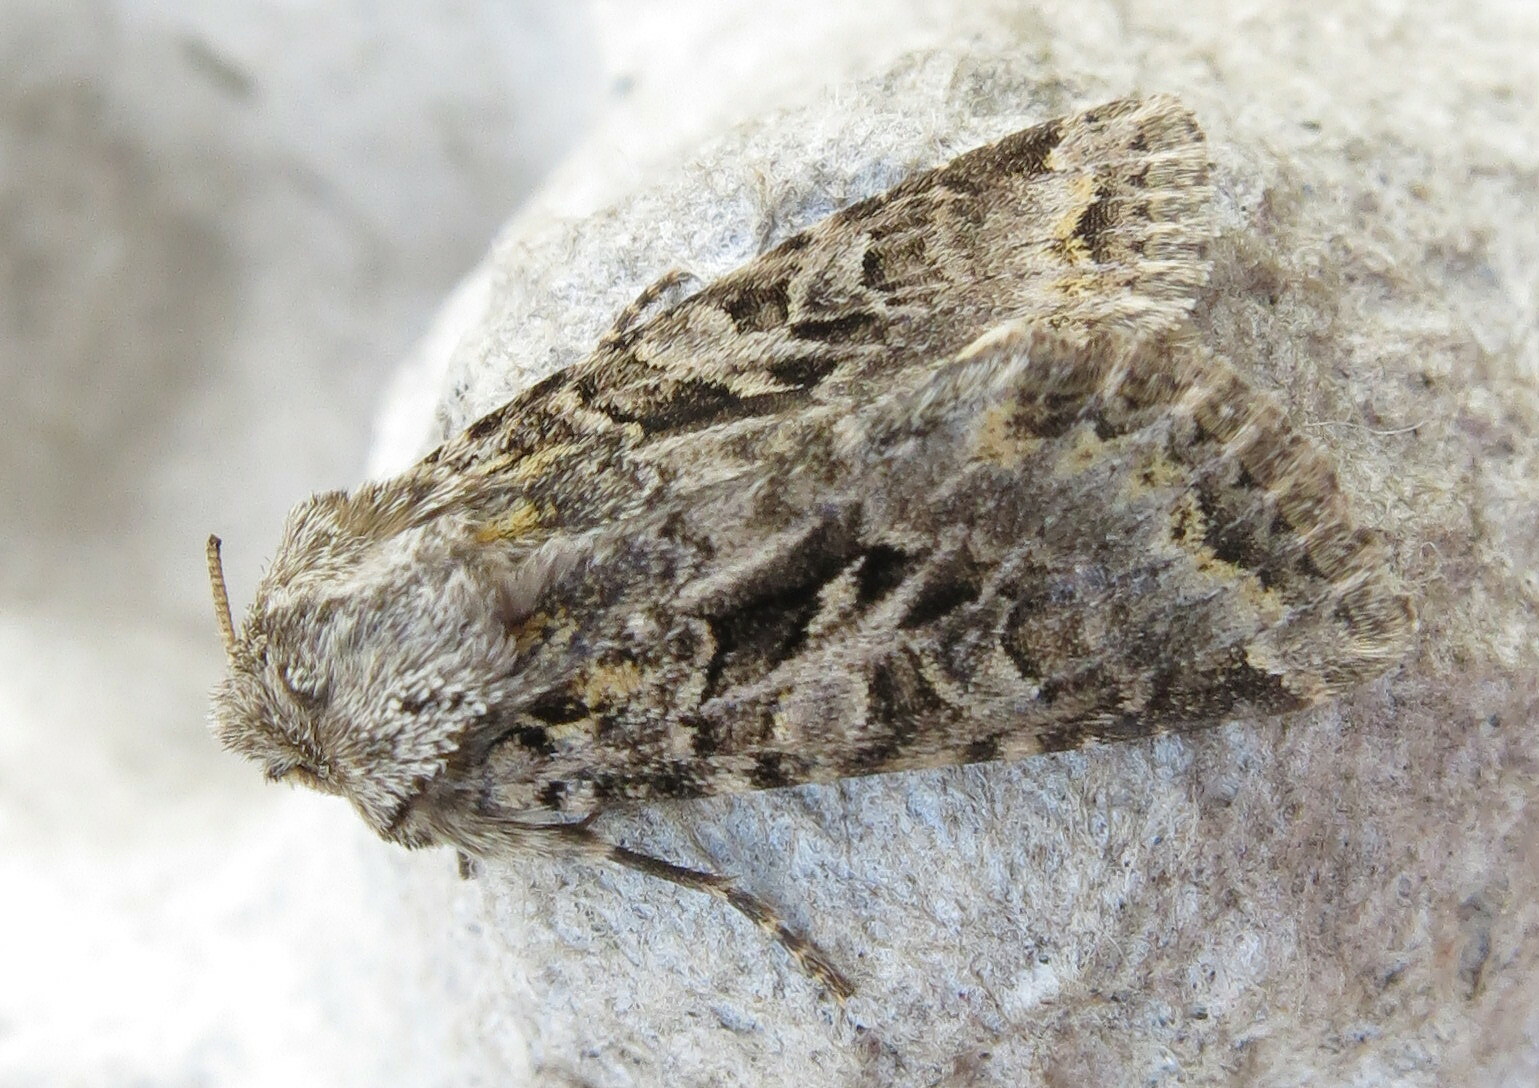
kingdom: Animalia
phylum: Arthropoda
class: Insecta
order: Lepidoptera
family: Noctuidae
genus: Hada
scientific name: Hada plebeja
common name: Shears
